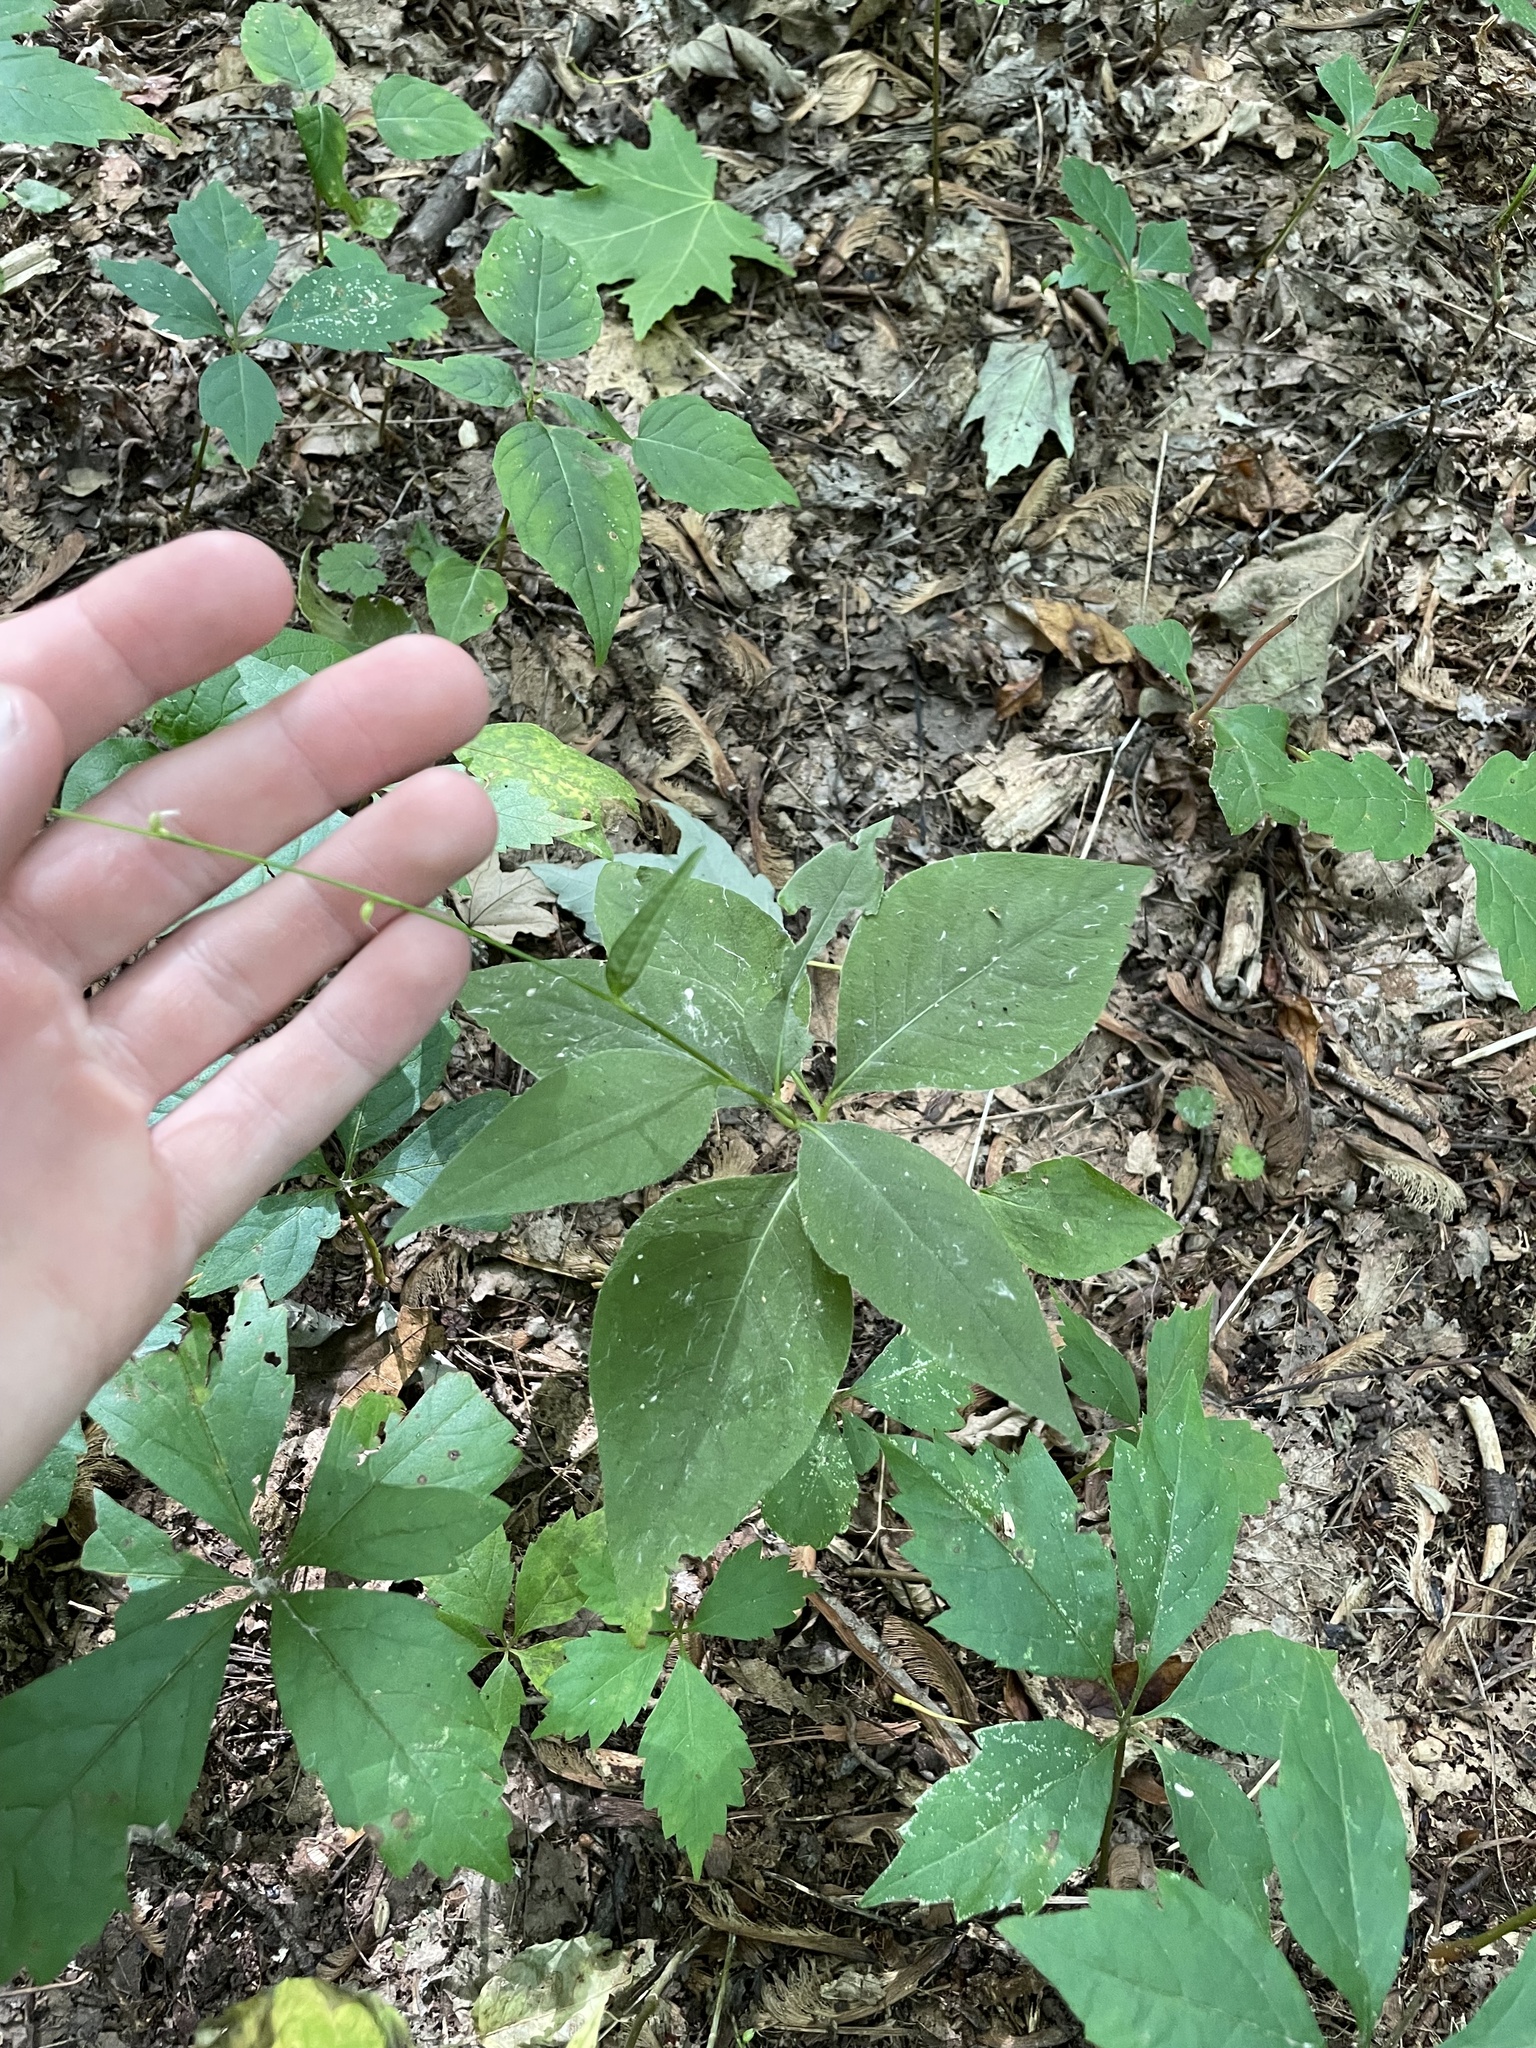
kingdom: Plantae
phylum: Tracheophyta
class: Magnoliopsida
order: Caryophyllales
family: Polygonaceae
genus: Persicaria
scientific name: Persicaria virginiana
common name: Jumpseed
